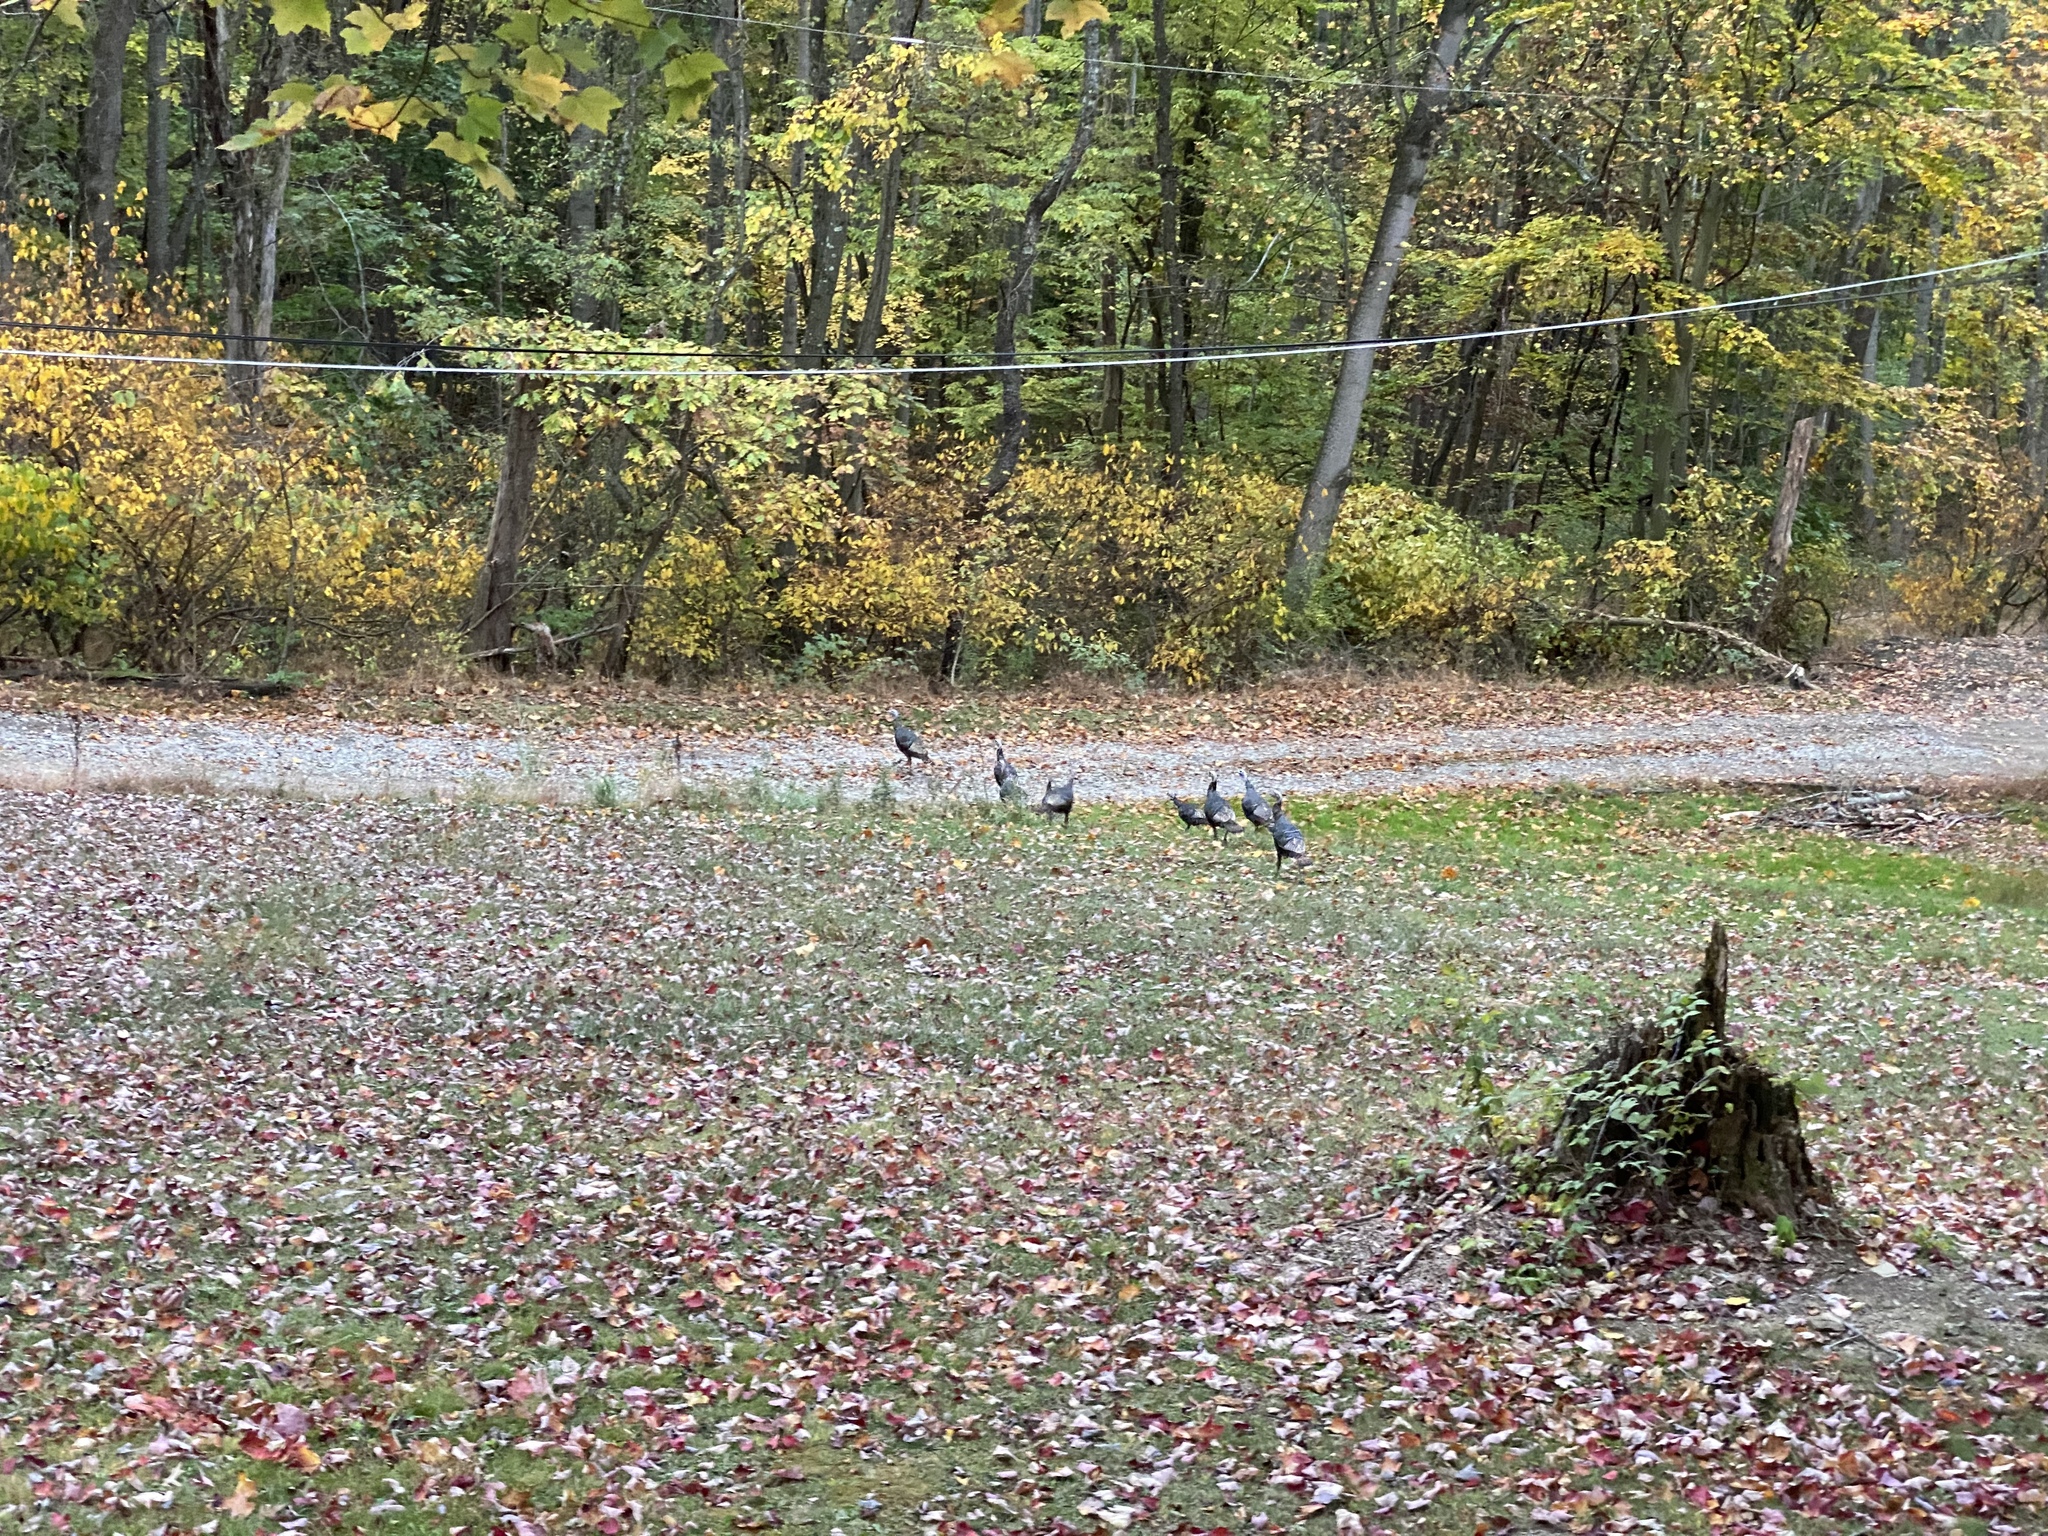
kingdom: Animalia
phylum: Chordata
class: Aves
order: Galliformes
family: Phasianidae
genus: Meleagris
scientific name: Meleagris gallopavo
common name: Wild turkey
